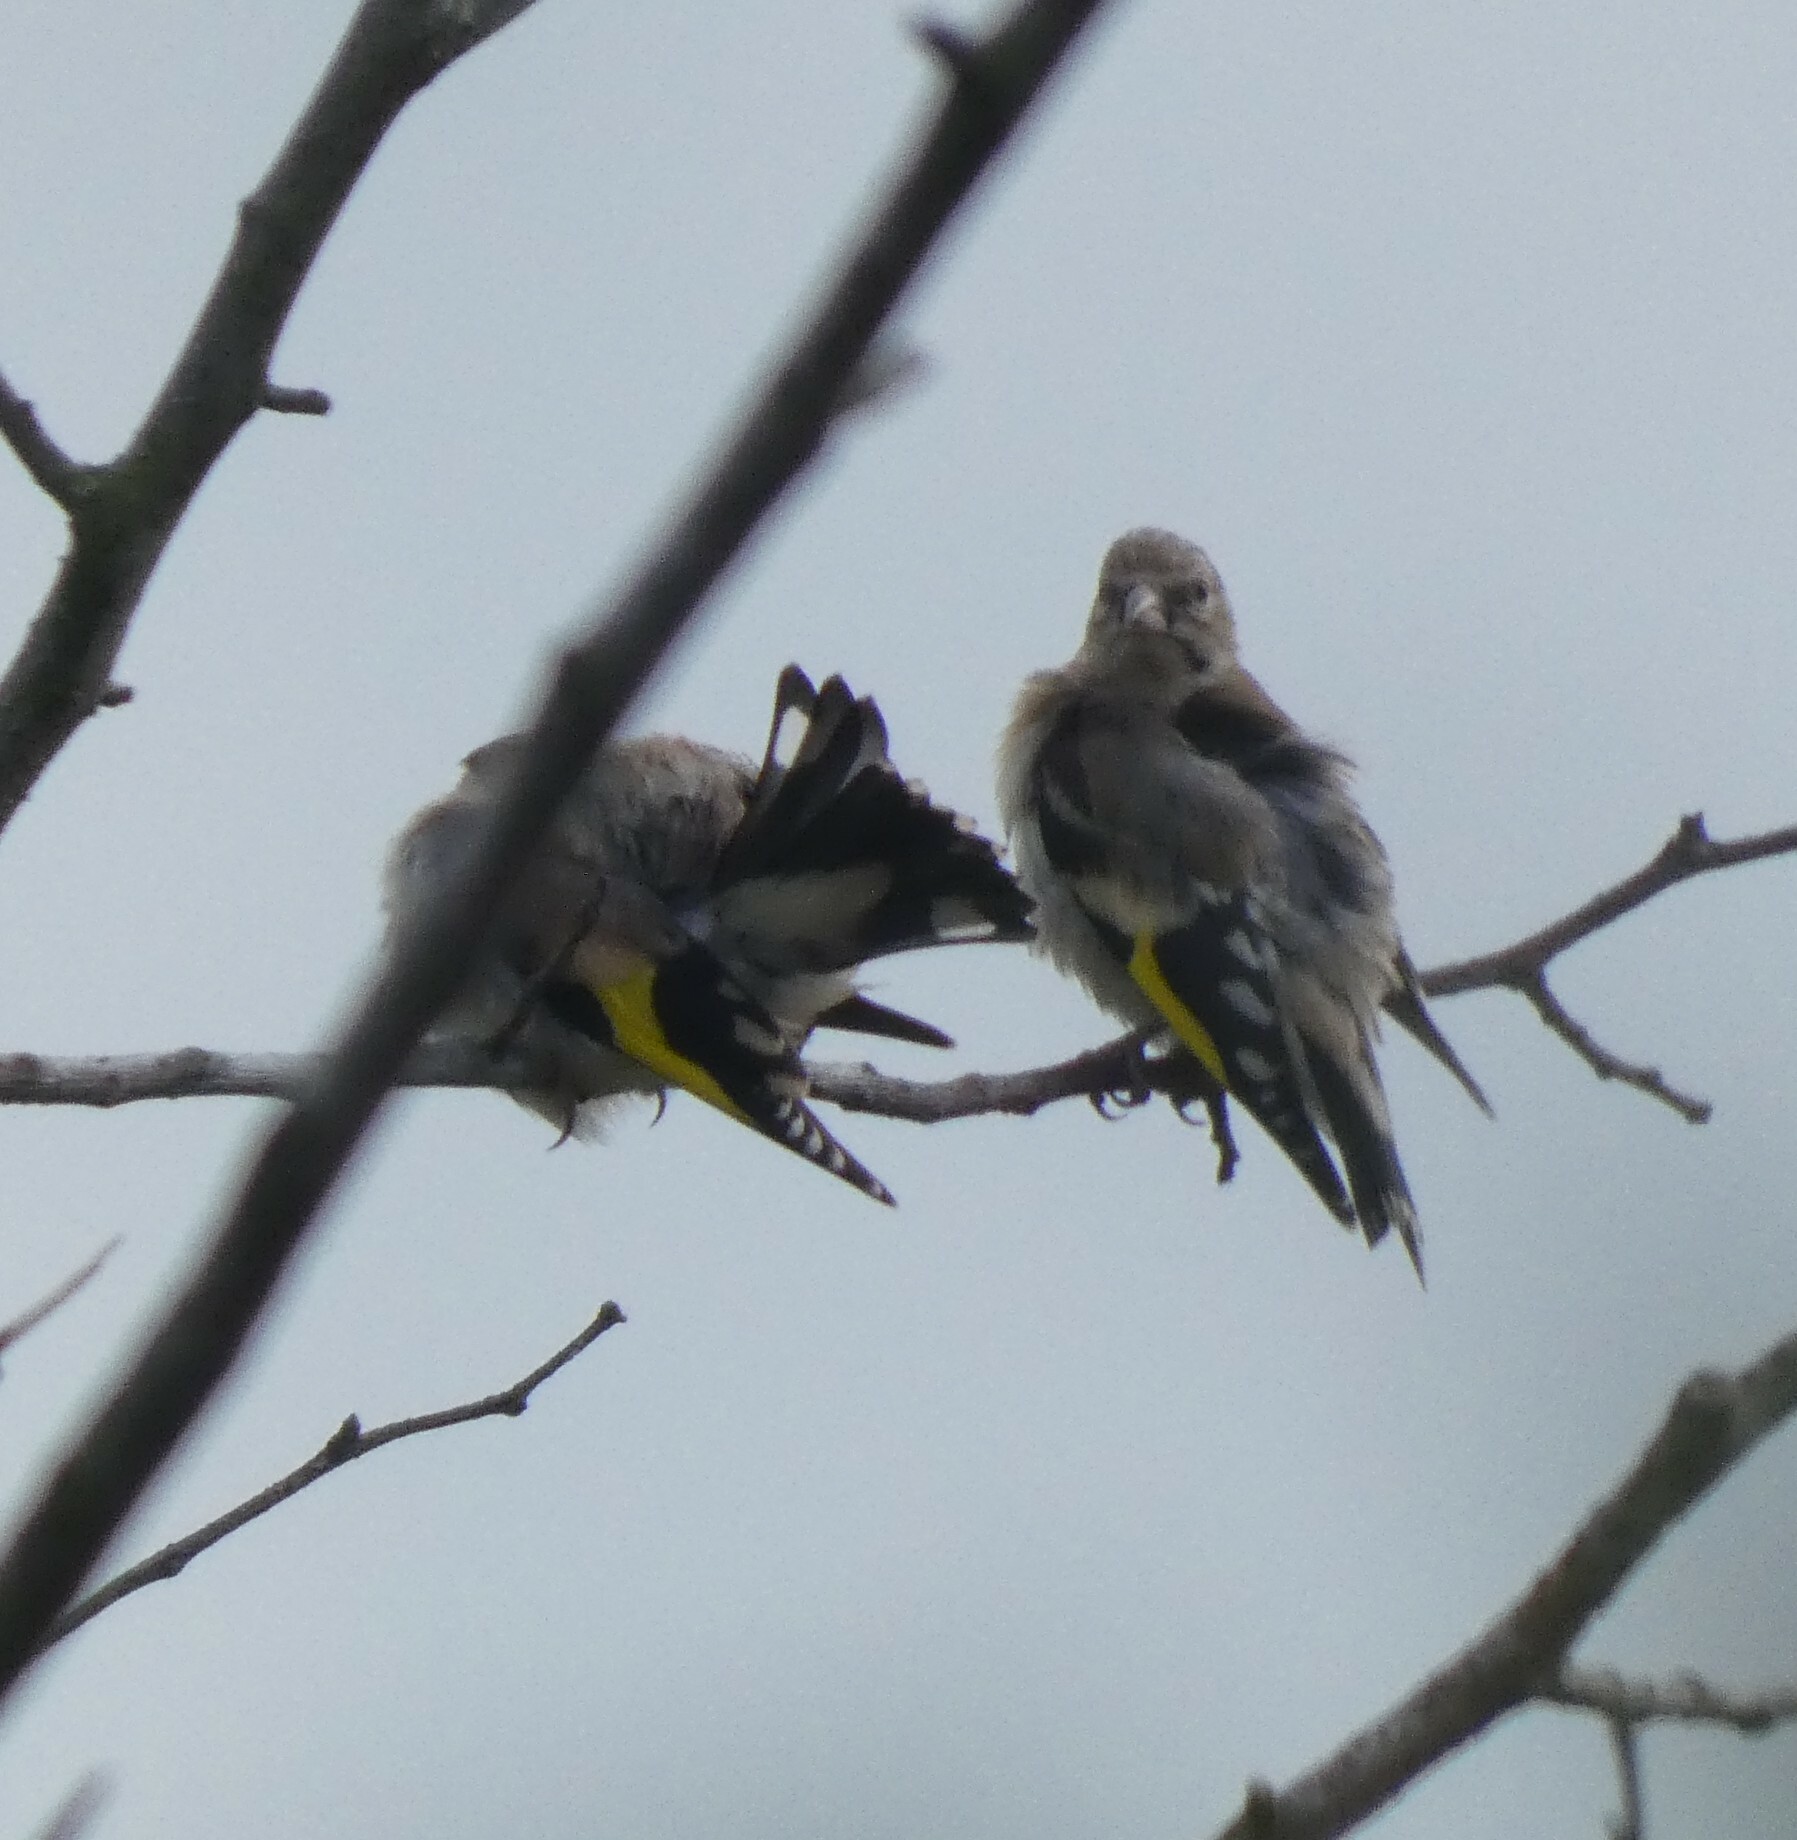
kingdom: Animalia
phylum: Chordata
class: Aves
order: Passeriformes
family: Fringillidae
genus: Carduelis
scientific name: Carduelis carduelis
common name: European goldfinch
